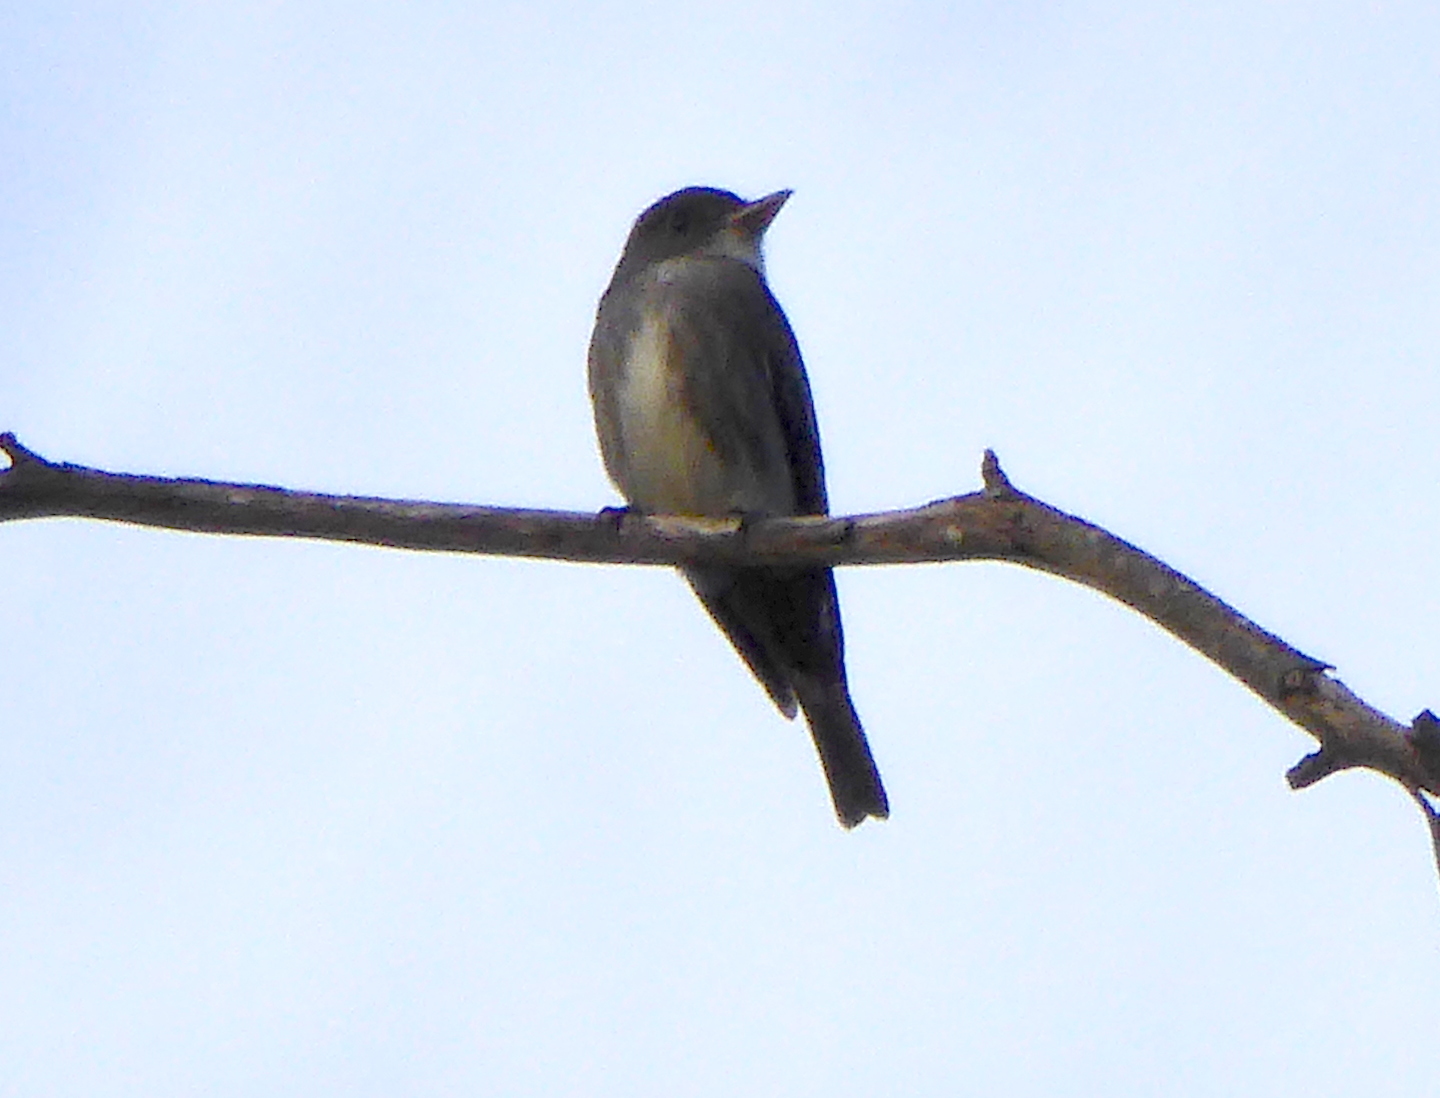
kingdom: Animalia
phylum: Chordata
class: Aves
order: Passeriformes
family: Tyrannidae
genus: Contopus
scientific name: Contopus cooperi
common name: Olive-sided flycatcher
